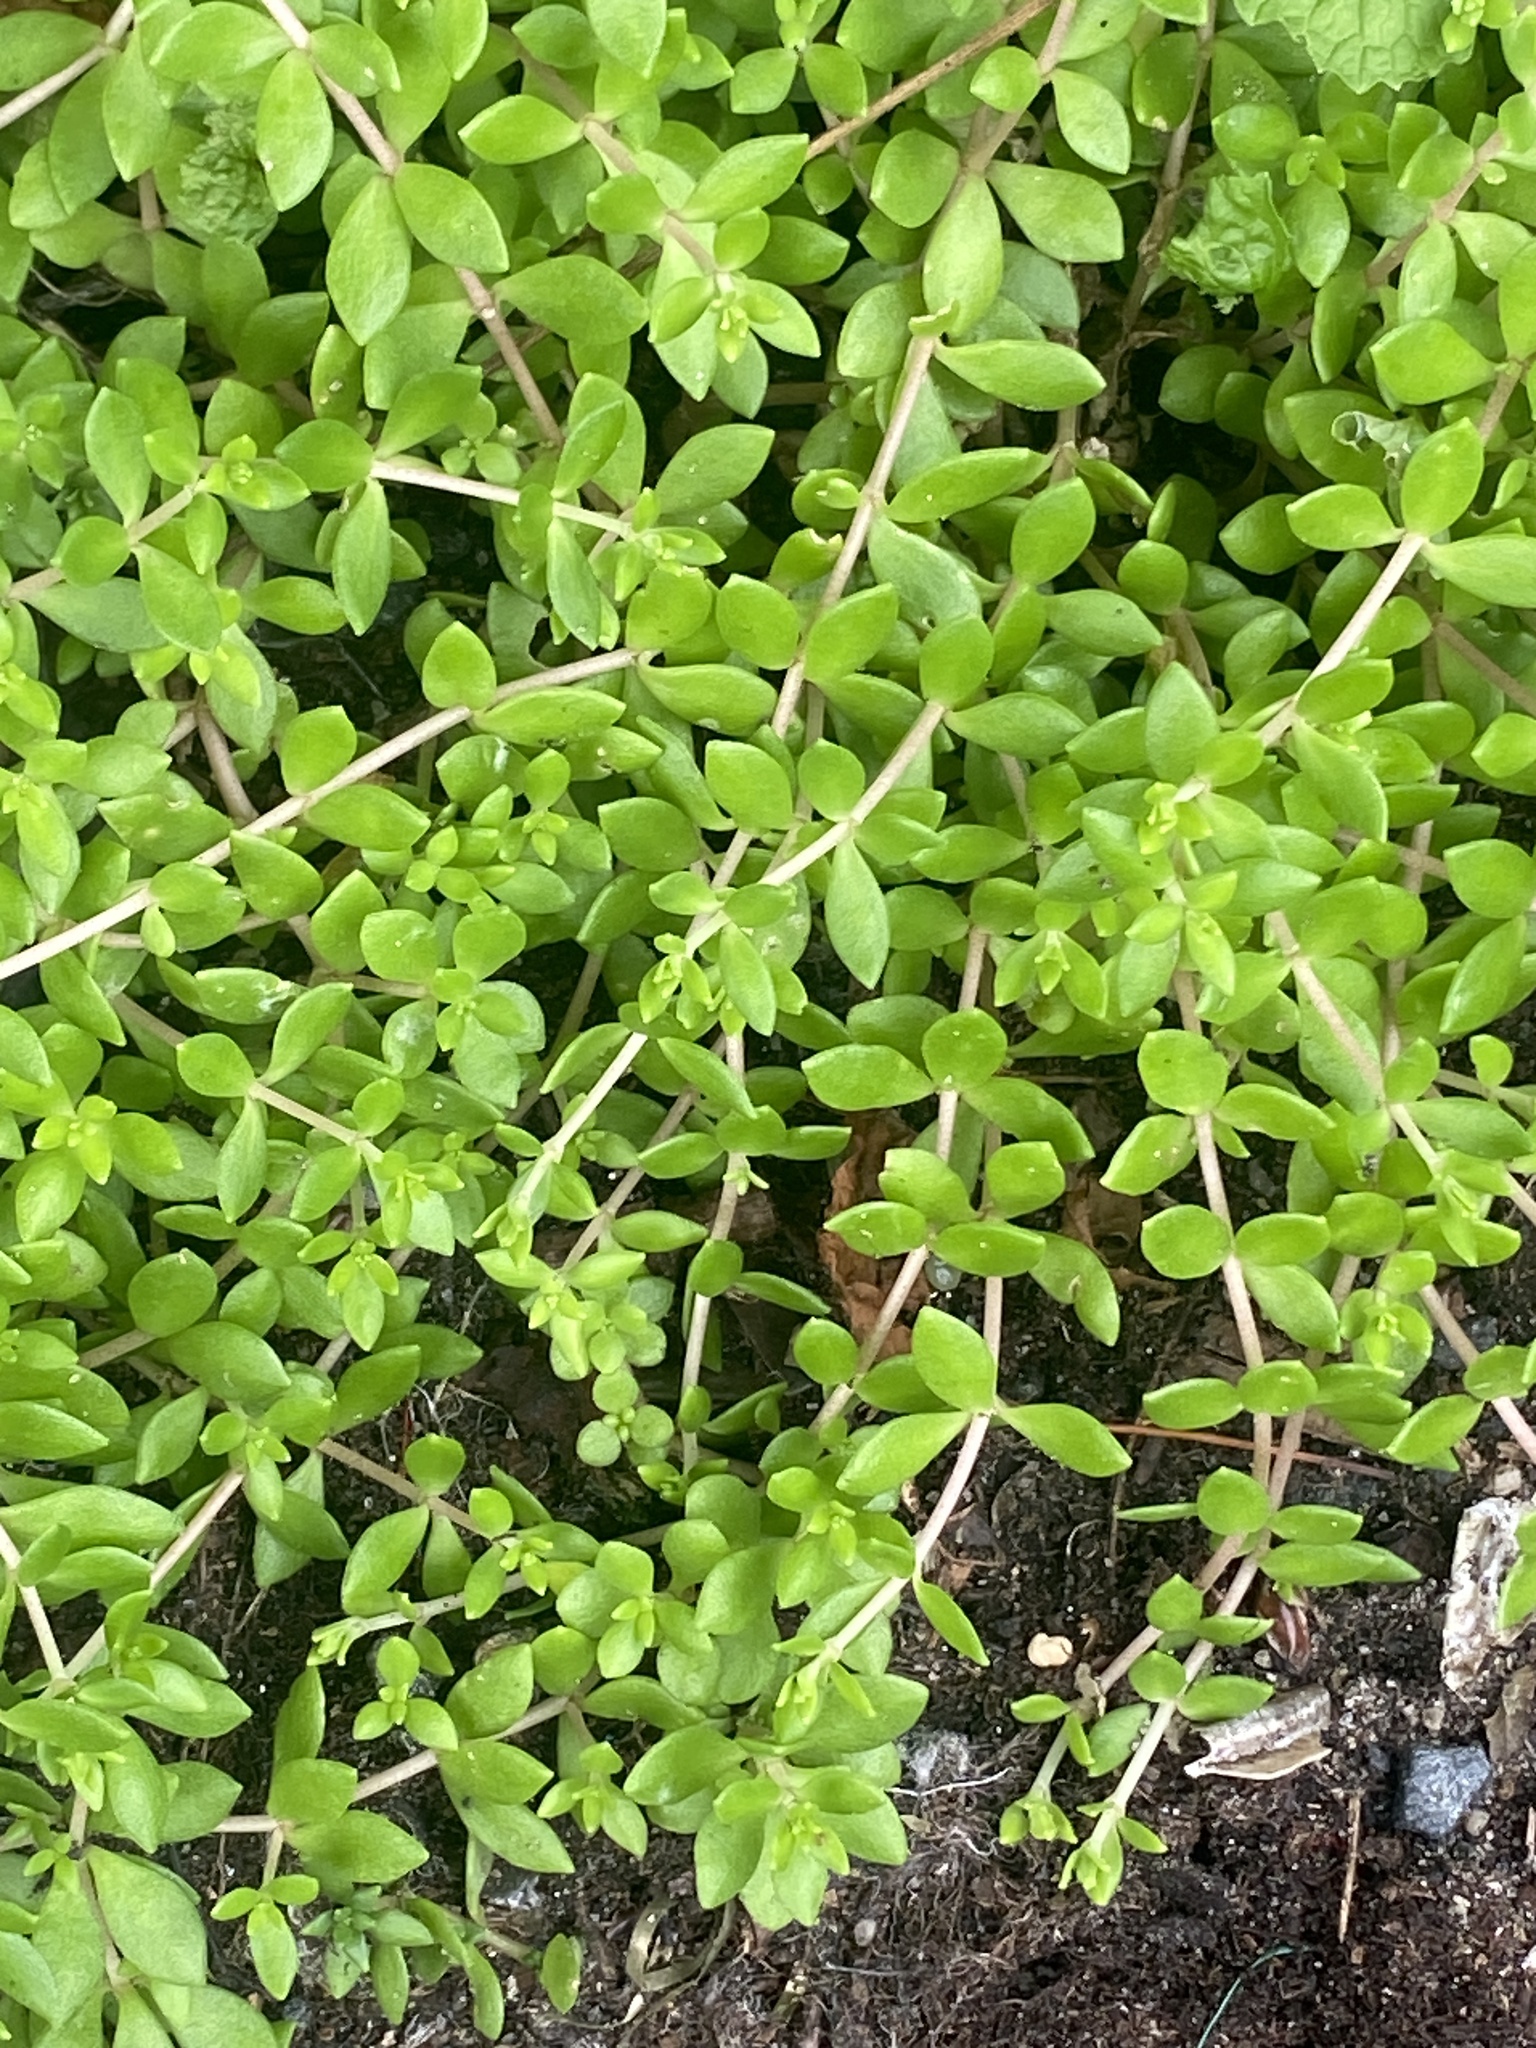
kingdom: Plantae
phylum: Tracheophyta
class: Magnoliopsida
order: Saxifragales
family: Crassulaceae
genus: Sedum
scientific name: Sedum sarmentosum
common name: Stringy stonecrop
